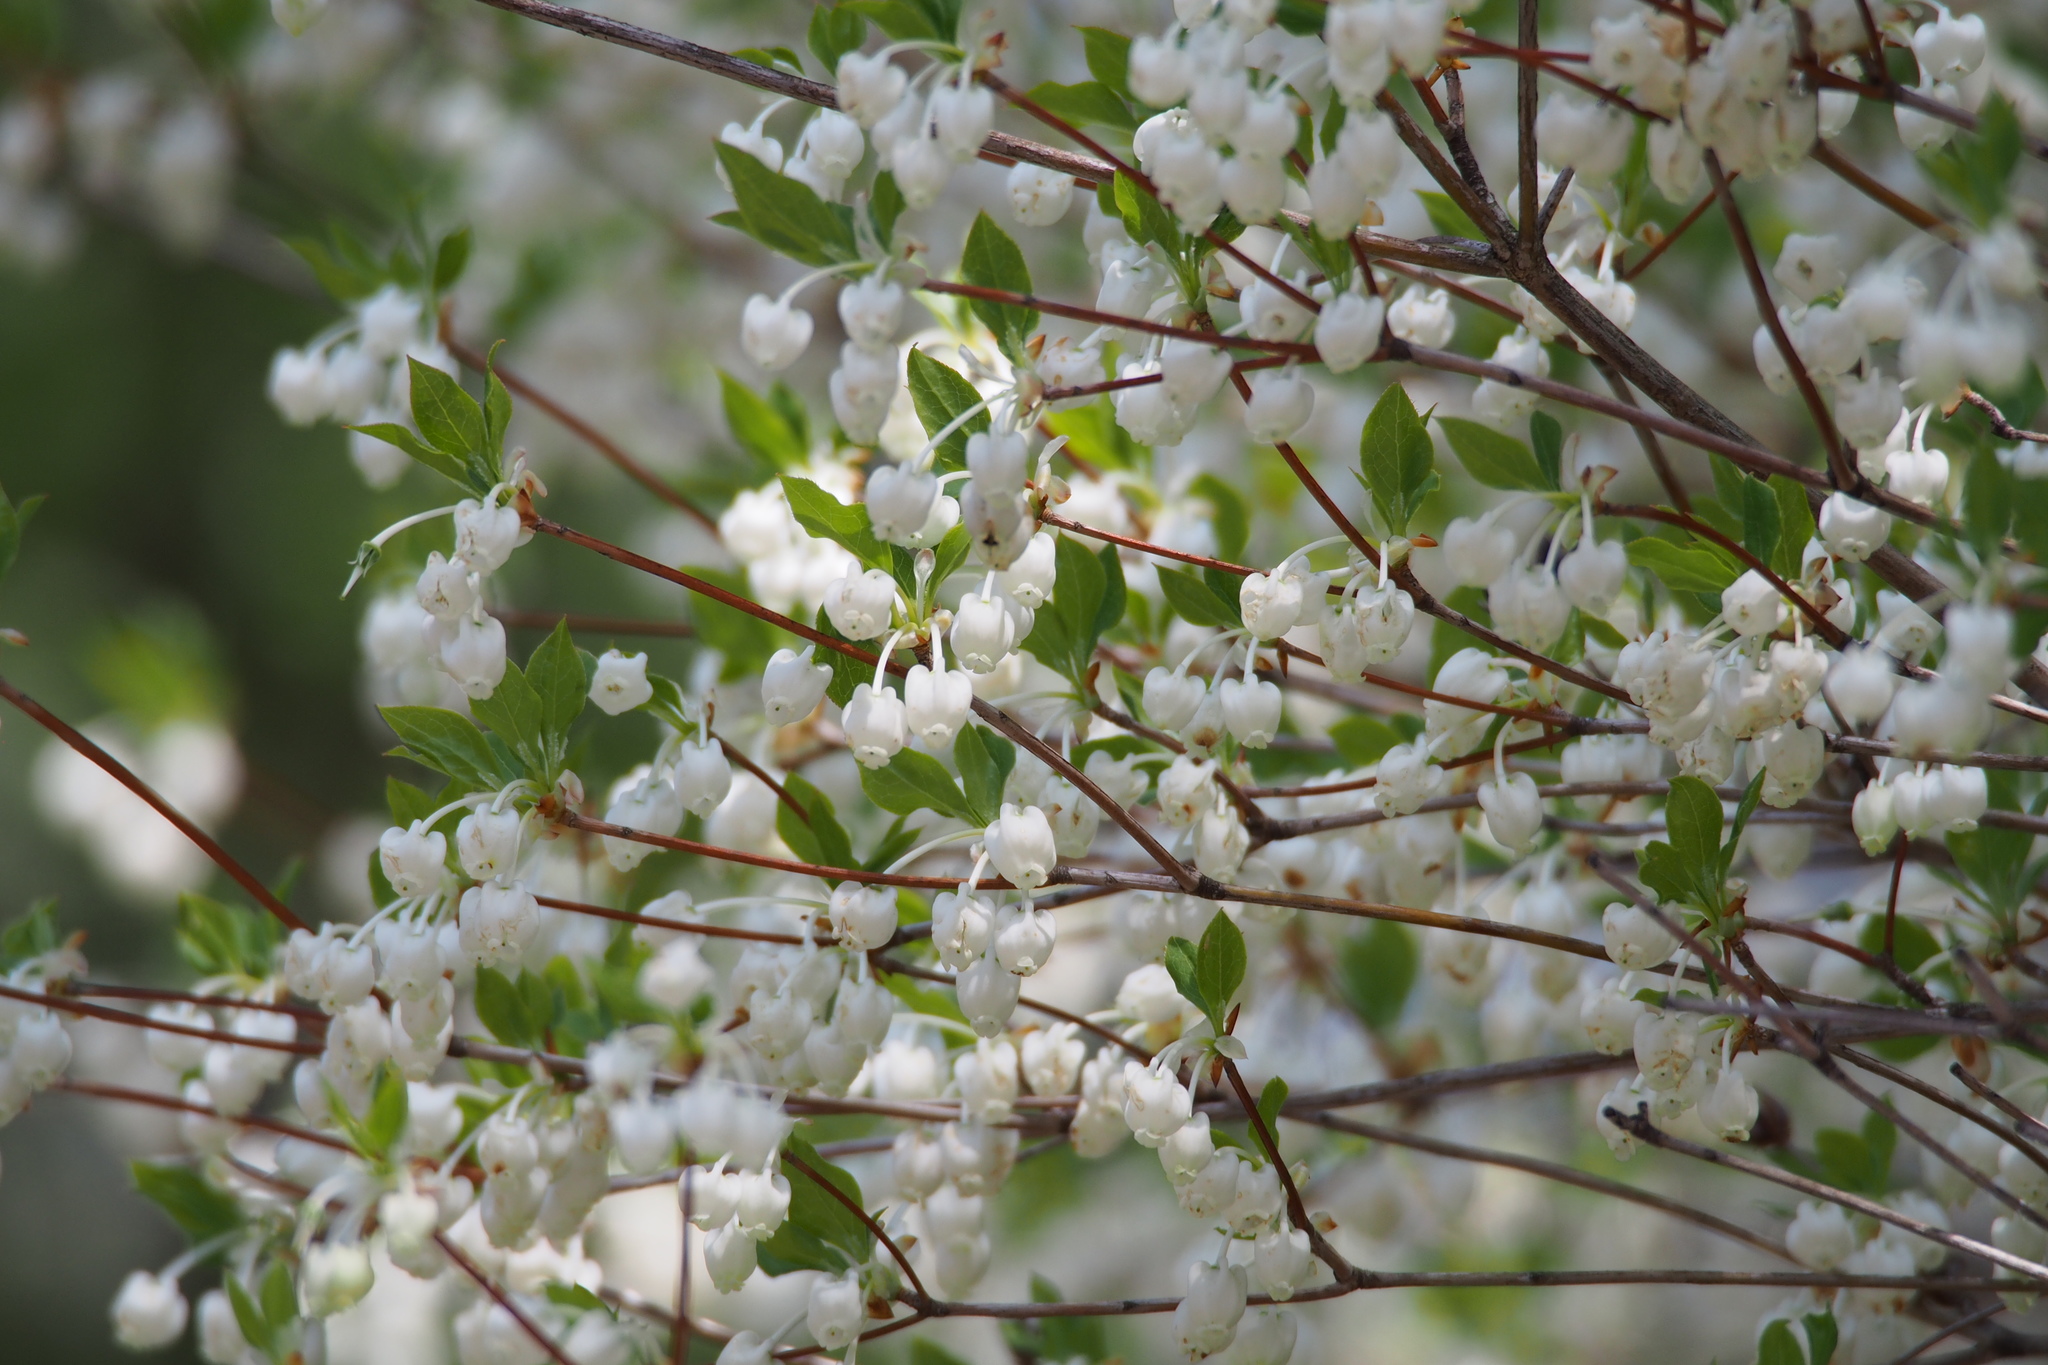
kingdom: Plantae
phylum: Tracheophyta
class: Magnoliopsida
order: Ericales
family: Ericaceae
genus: Enkianthus
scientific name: Enkianthus perulatus
